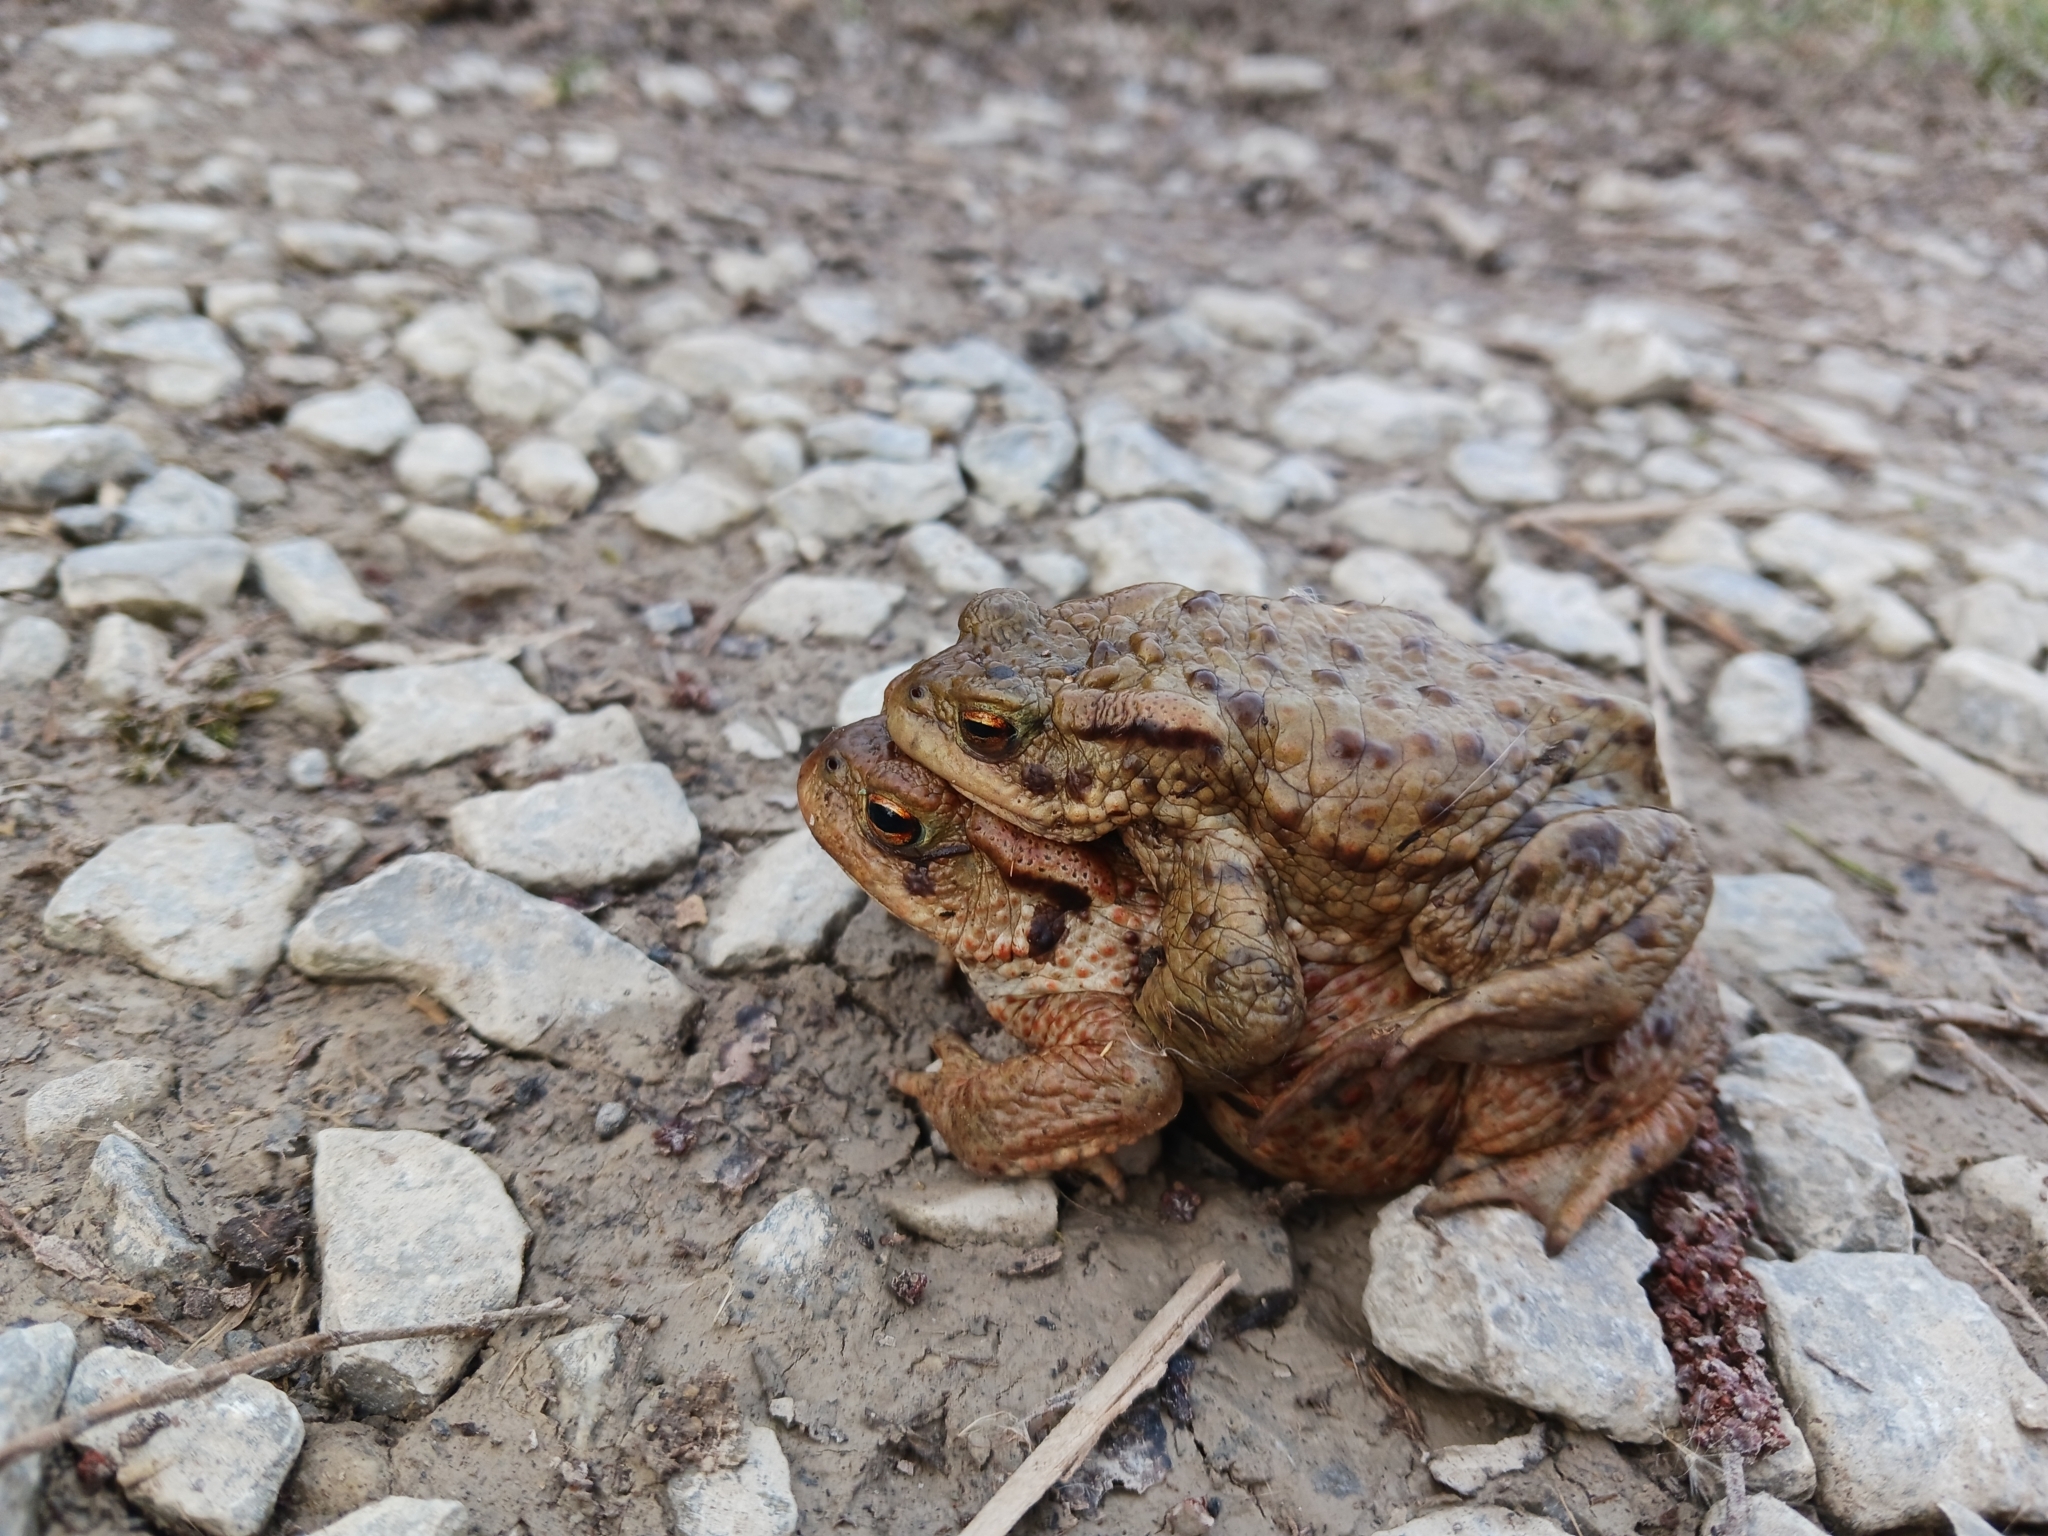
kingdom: Animalia
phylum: Chordata
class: Amphibia
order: Anura
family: Bufonidae
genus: Bufo
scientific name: Bufo bufo
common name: Common toad
